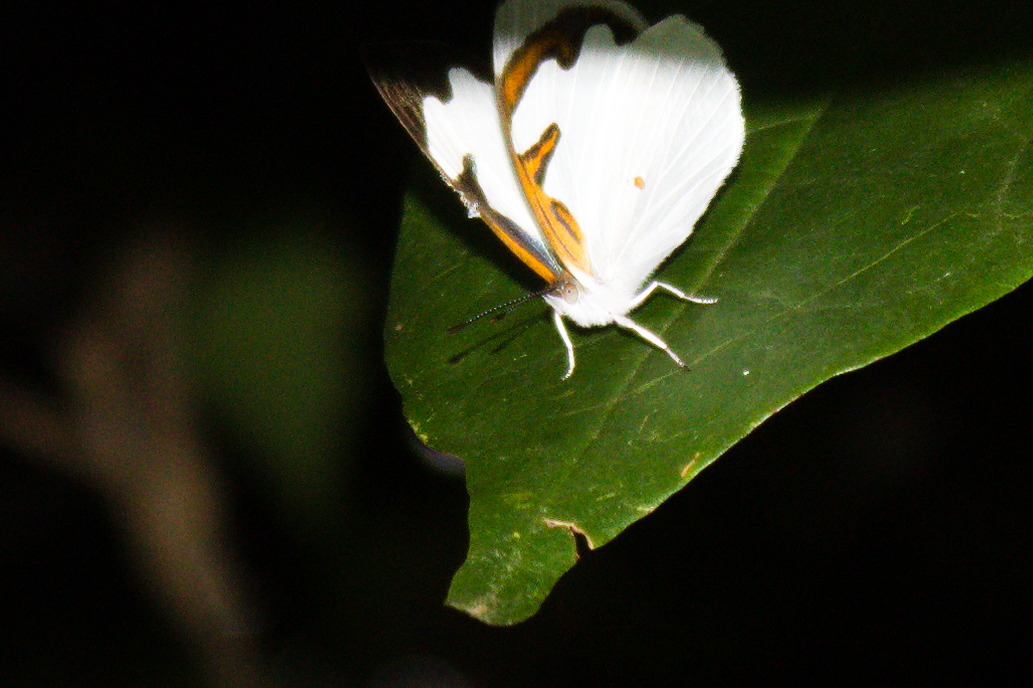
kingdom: Animalia
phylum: Arthropoda
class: Insecta
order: Lepidoptera
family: Nymphalidae
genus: Dynamine
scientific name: Dynamine myrrhina
